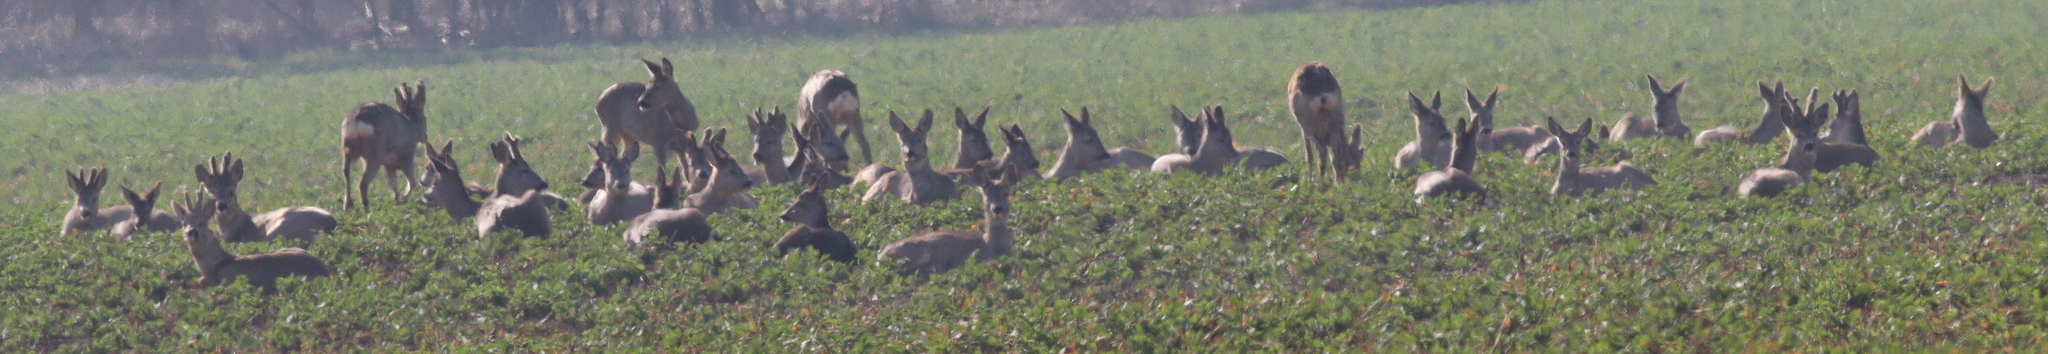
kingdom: Animalia
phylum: Chordata
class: Mammalia
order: Artiodactyla
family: Cervidae
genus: Capreolus
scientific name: Capreolus capreolus
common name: Western roe deer
